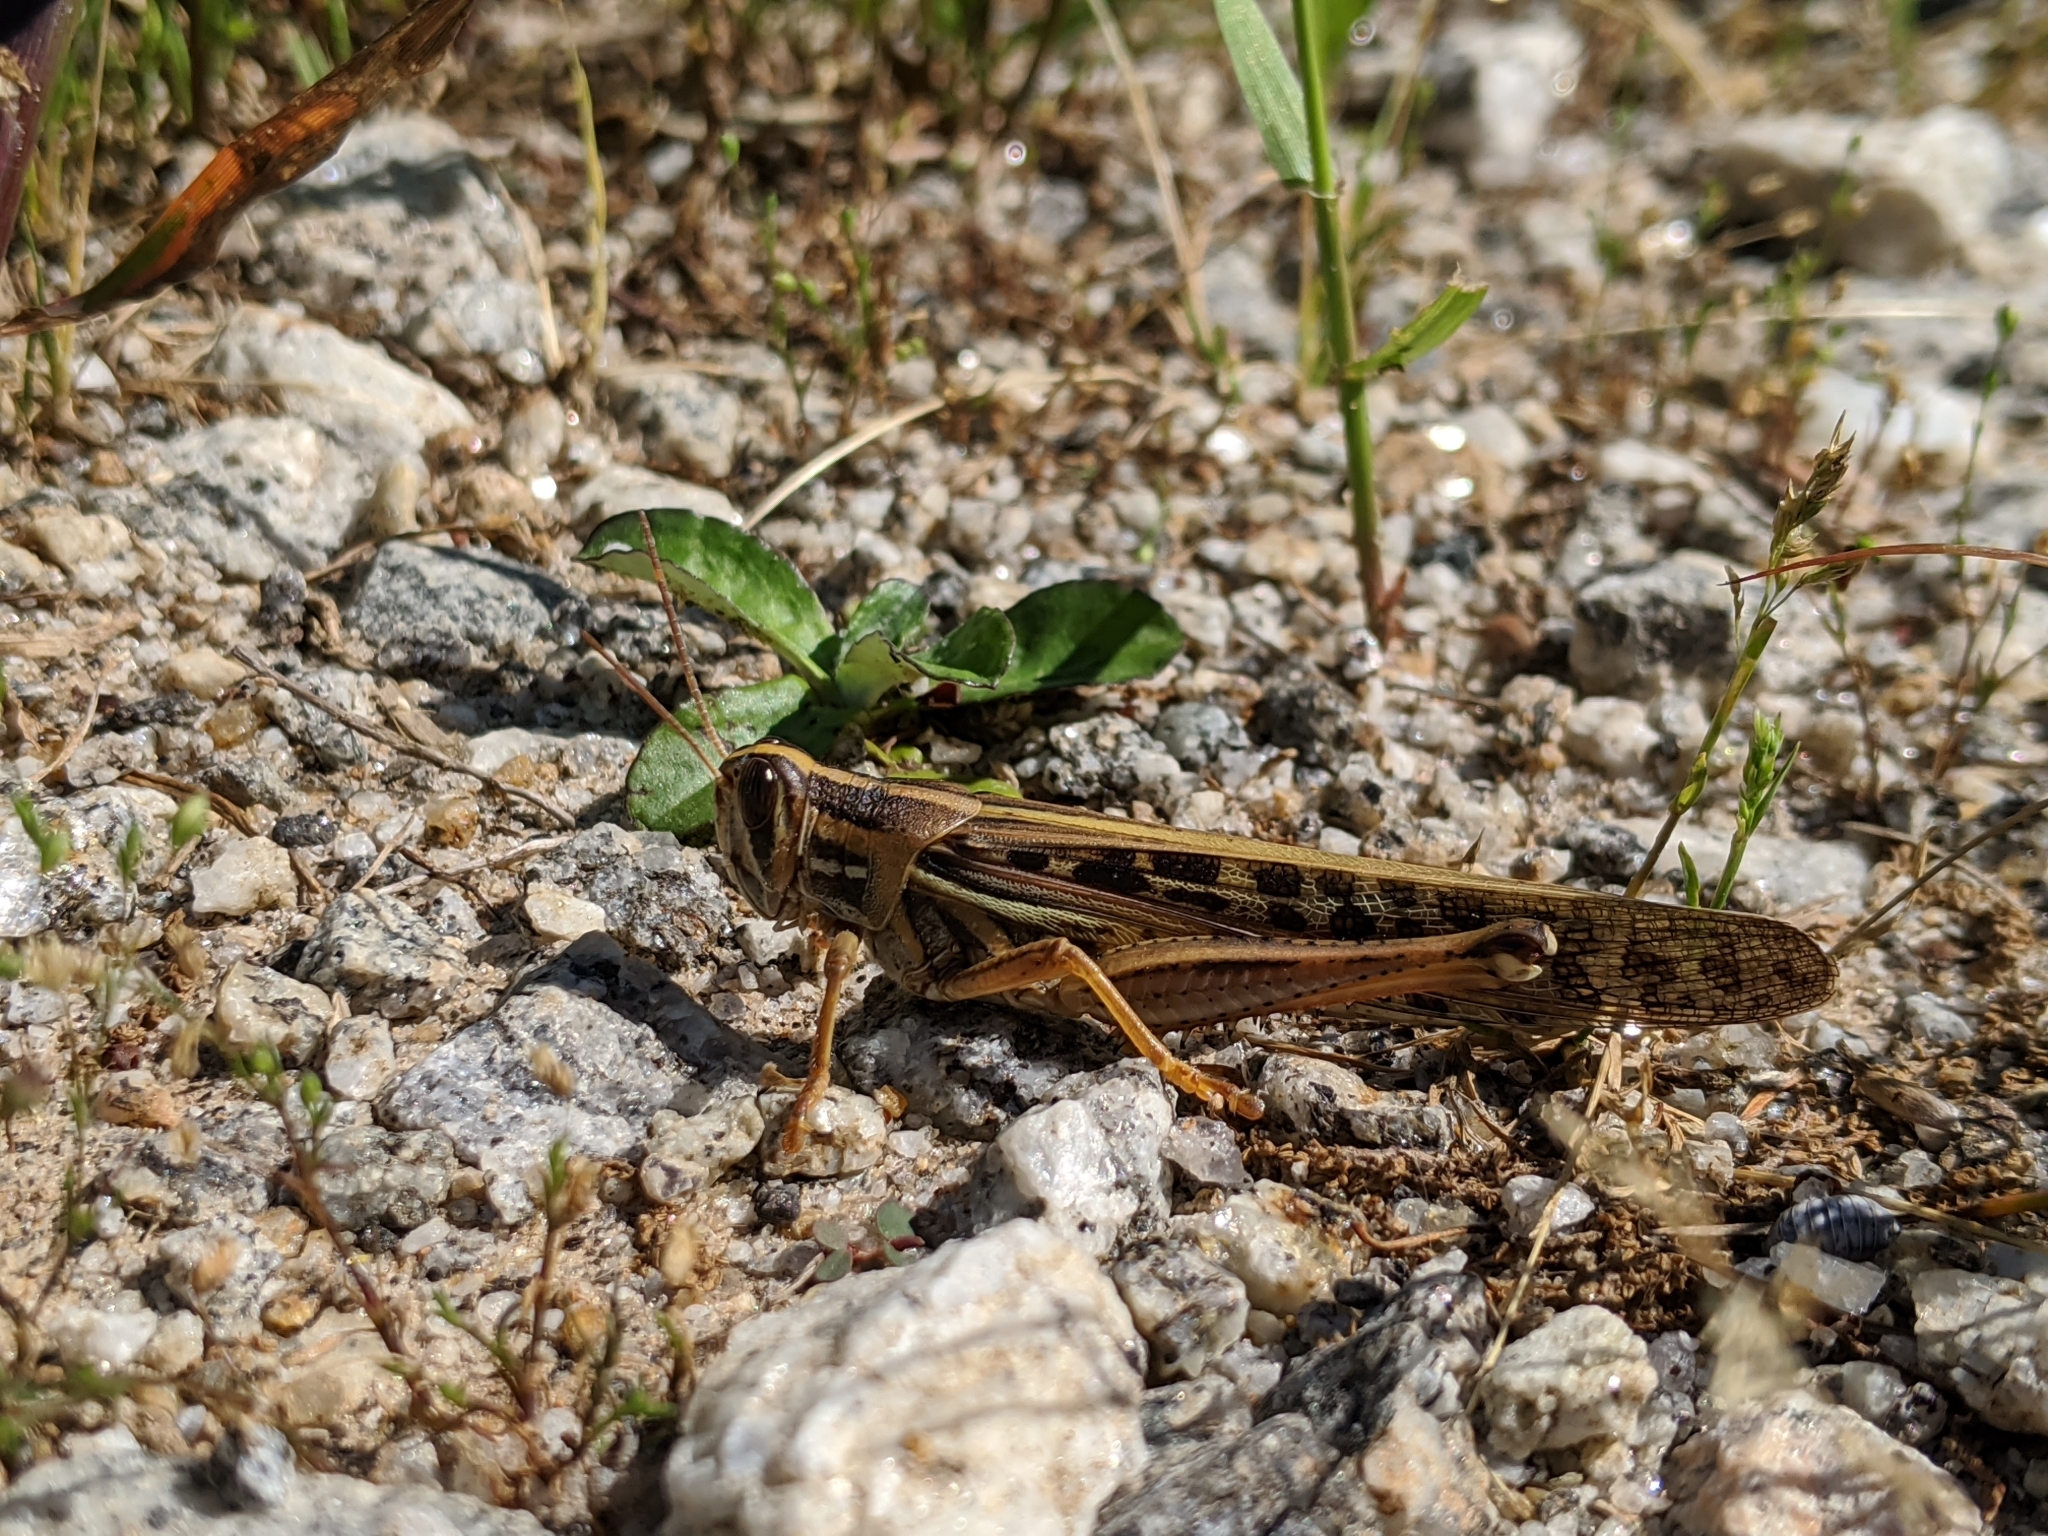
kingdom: Animalia
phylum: Arthropoda
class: Insecta
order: Orthoptera
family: Acrididae
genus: Schistocerca
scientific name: Schistocerca americana
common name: American bird locust
